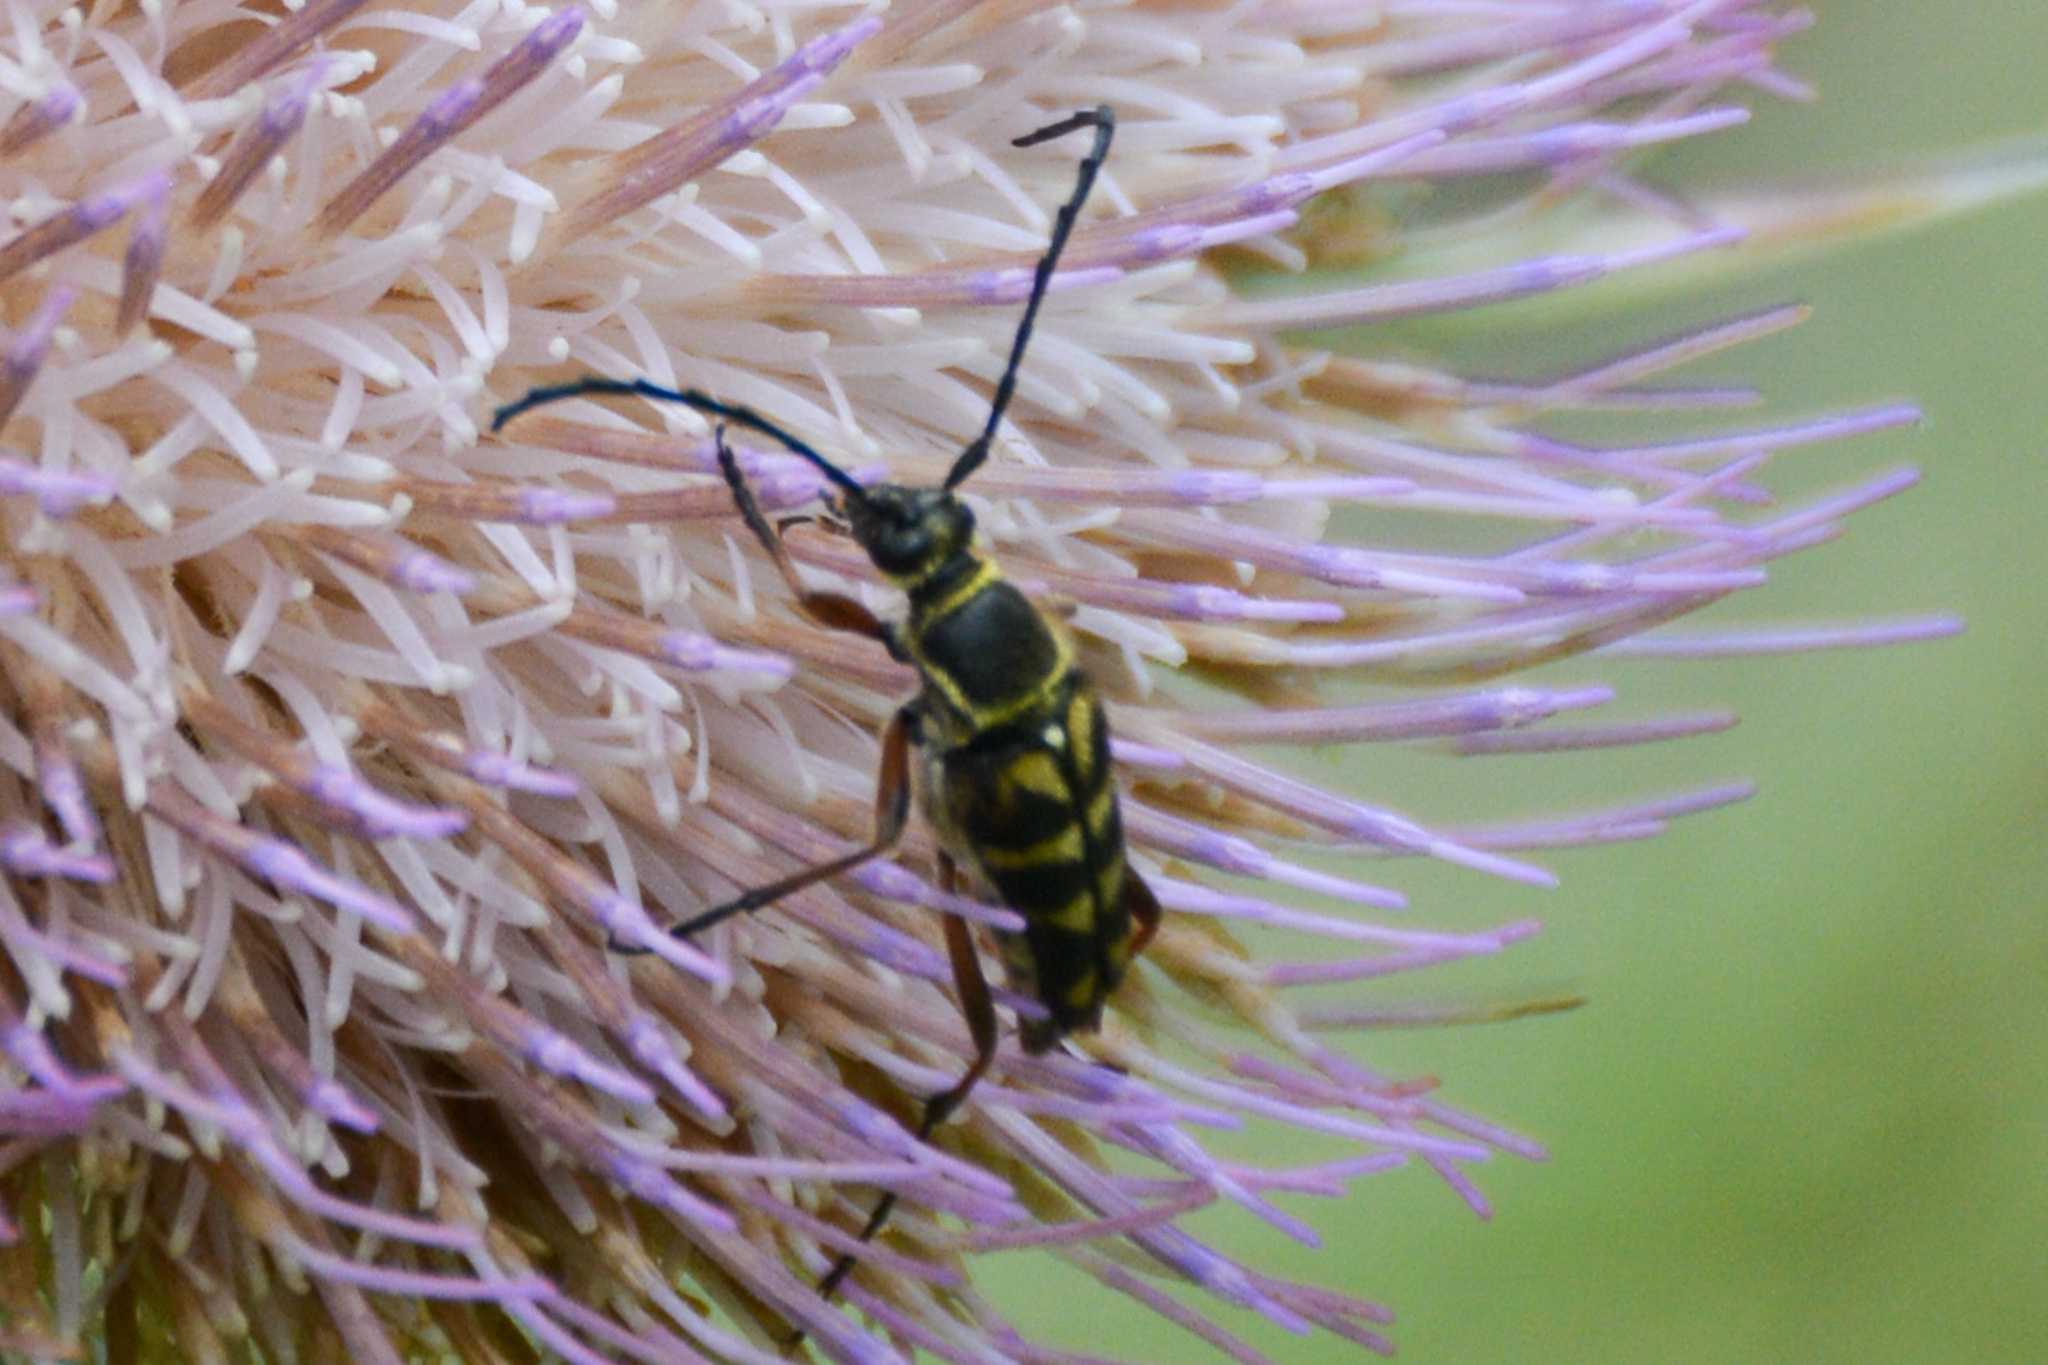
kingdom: Animalia
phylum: Arthropoda
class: Insecta
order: Coleoptera
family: Cerambycidae
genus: Typocerus
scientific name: Typocerus zebra
